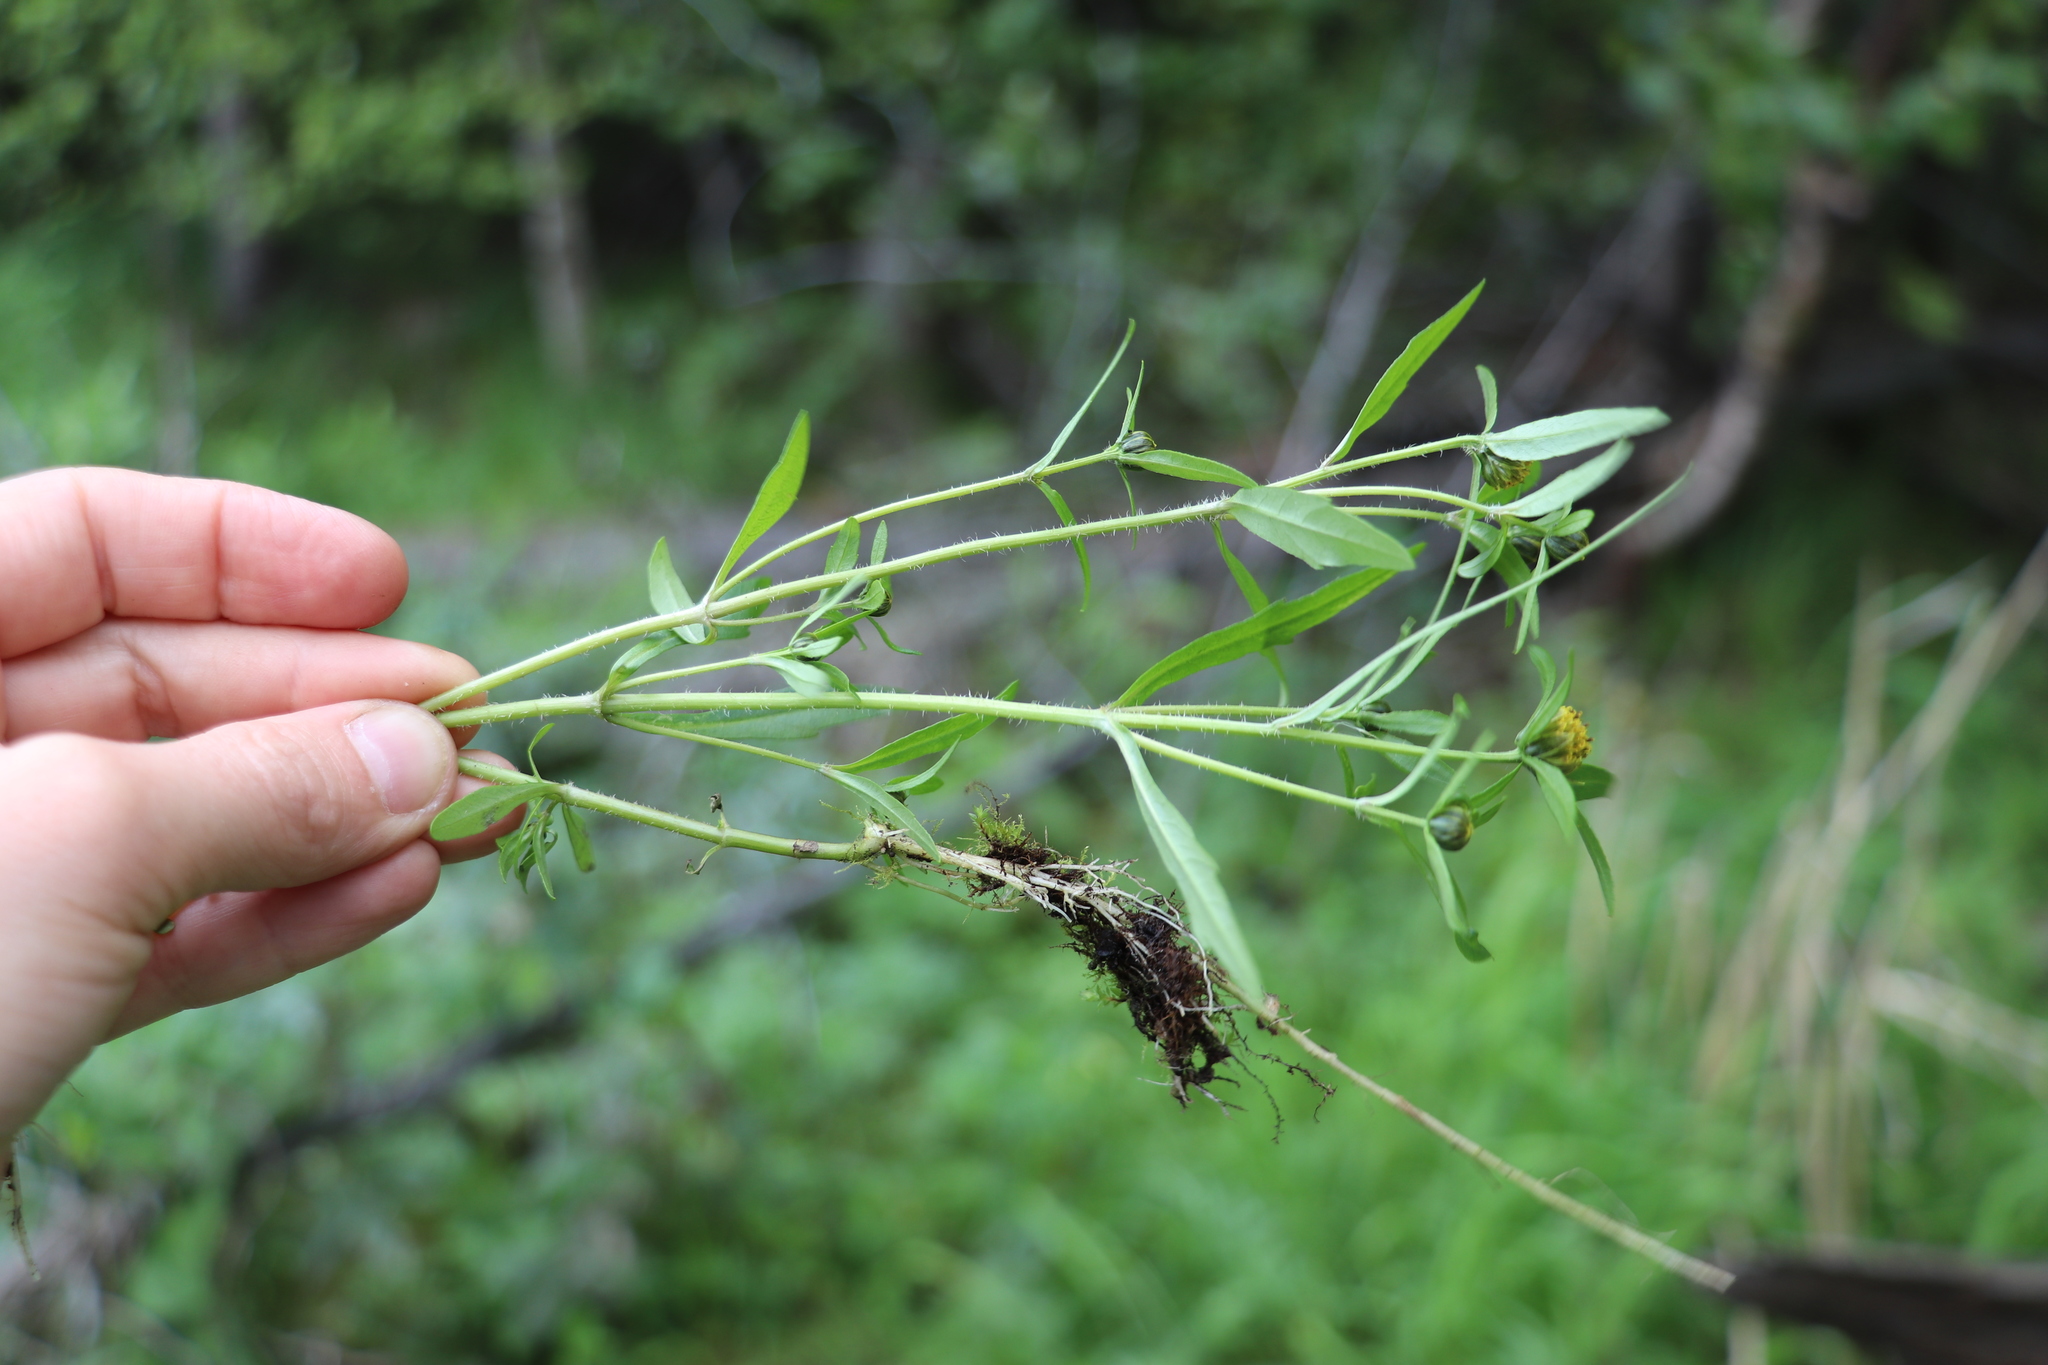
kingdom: Plantae
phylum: Tracheophyta
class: Magnoliopsida
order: Asterales
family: Asteraceae
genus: Bidens
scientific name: Bidens tripartita
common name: Trifid bur-marigold
